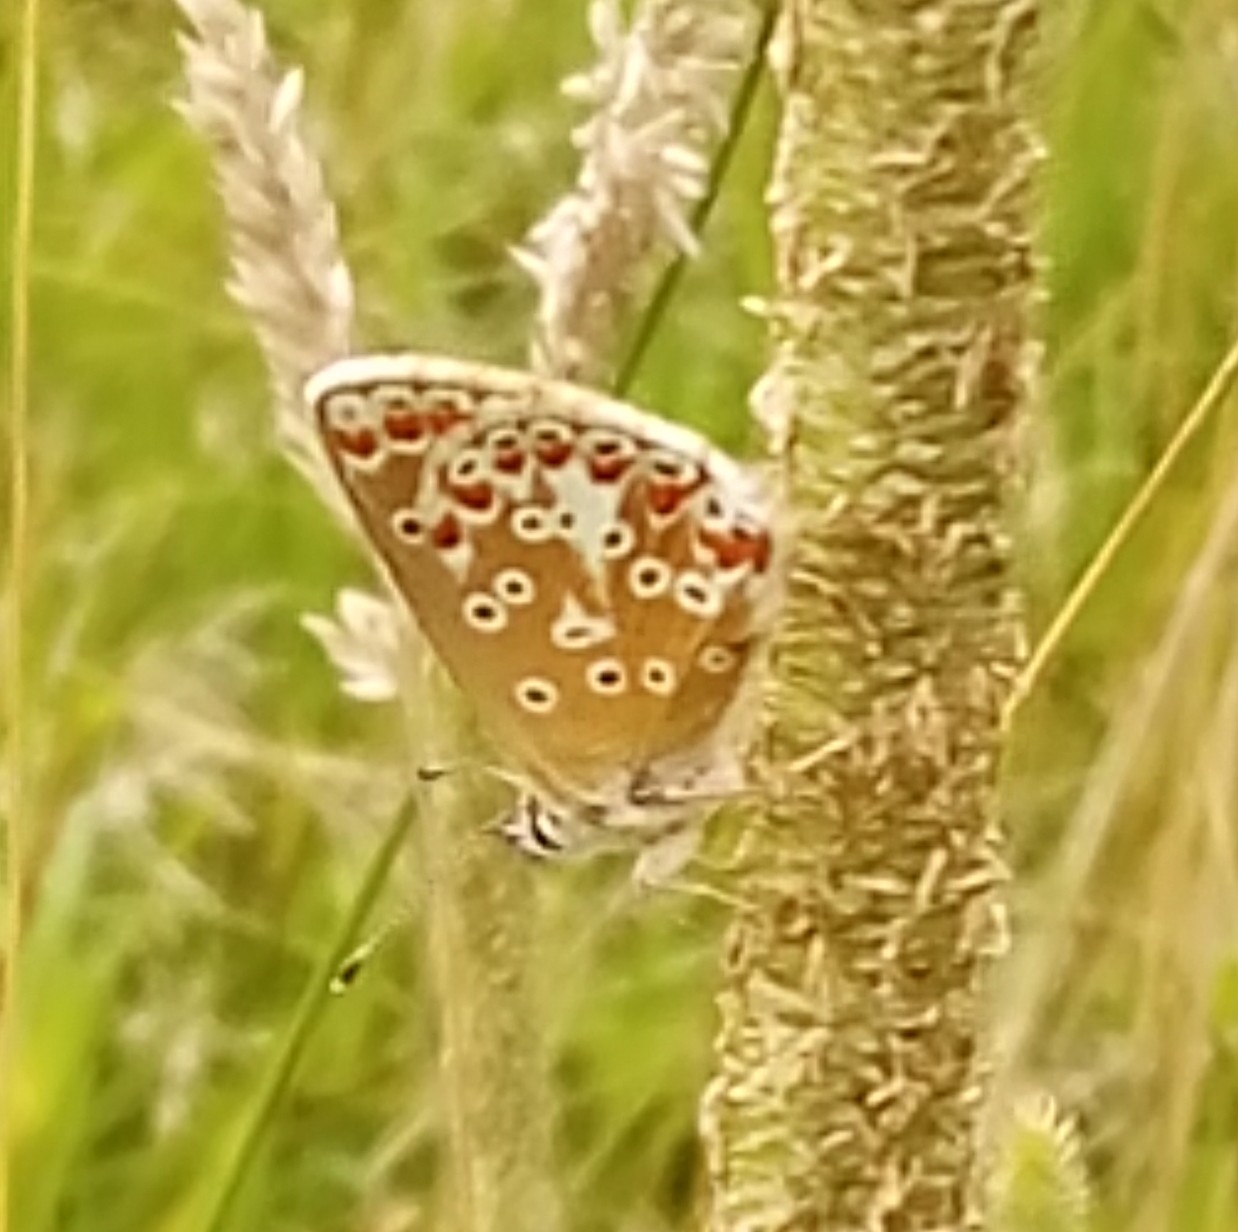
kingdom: Animalia
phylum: Arthropoda
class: Insecta
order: Lepidoptera
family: Lycaenidae
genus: Aricia
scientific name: Aricia agestis
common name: Brown argus
